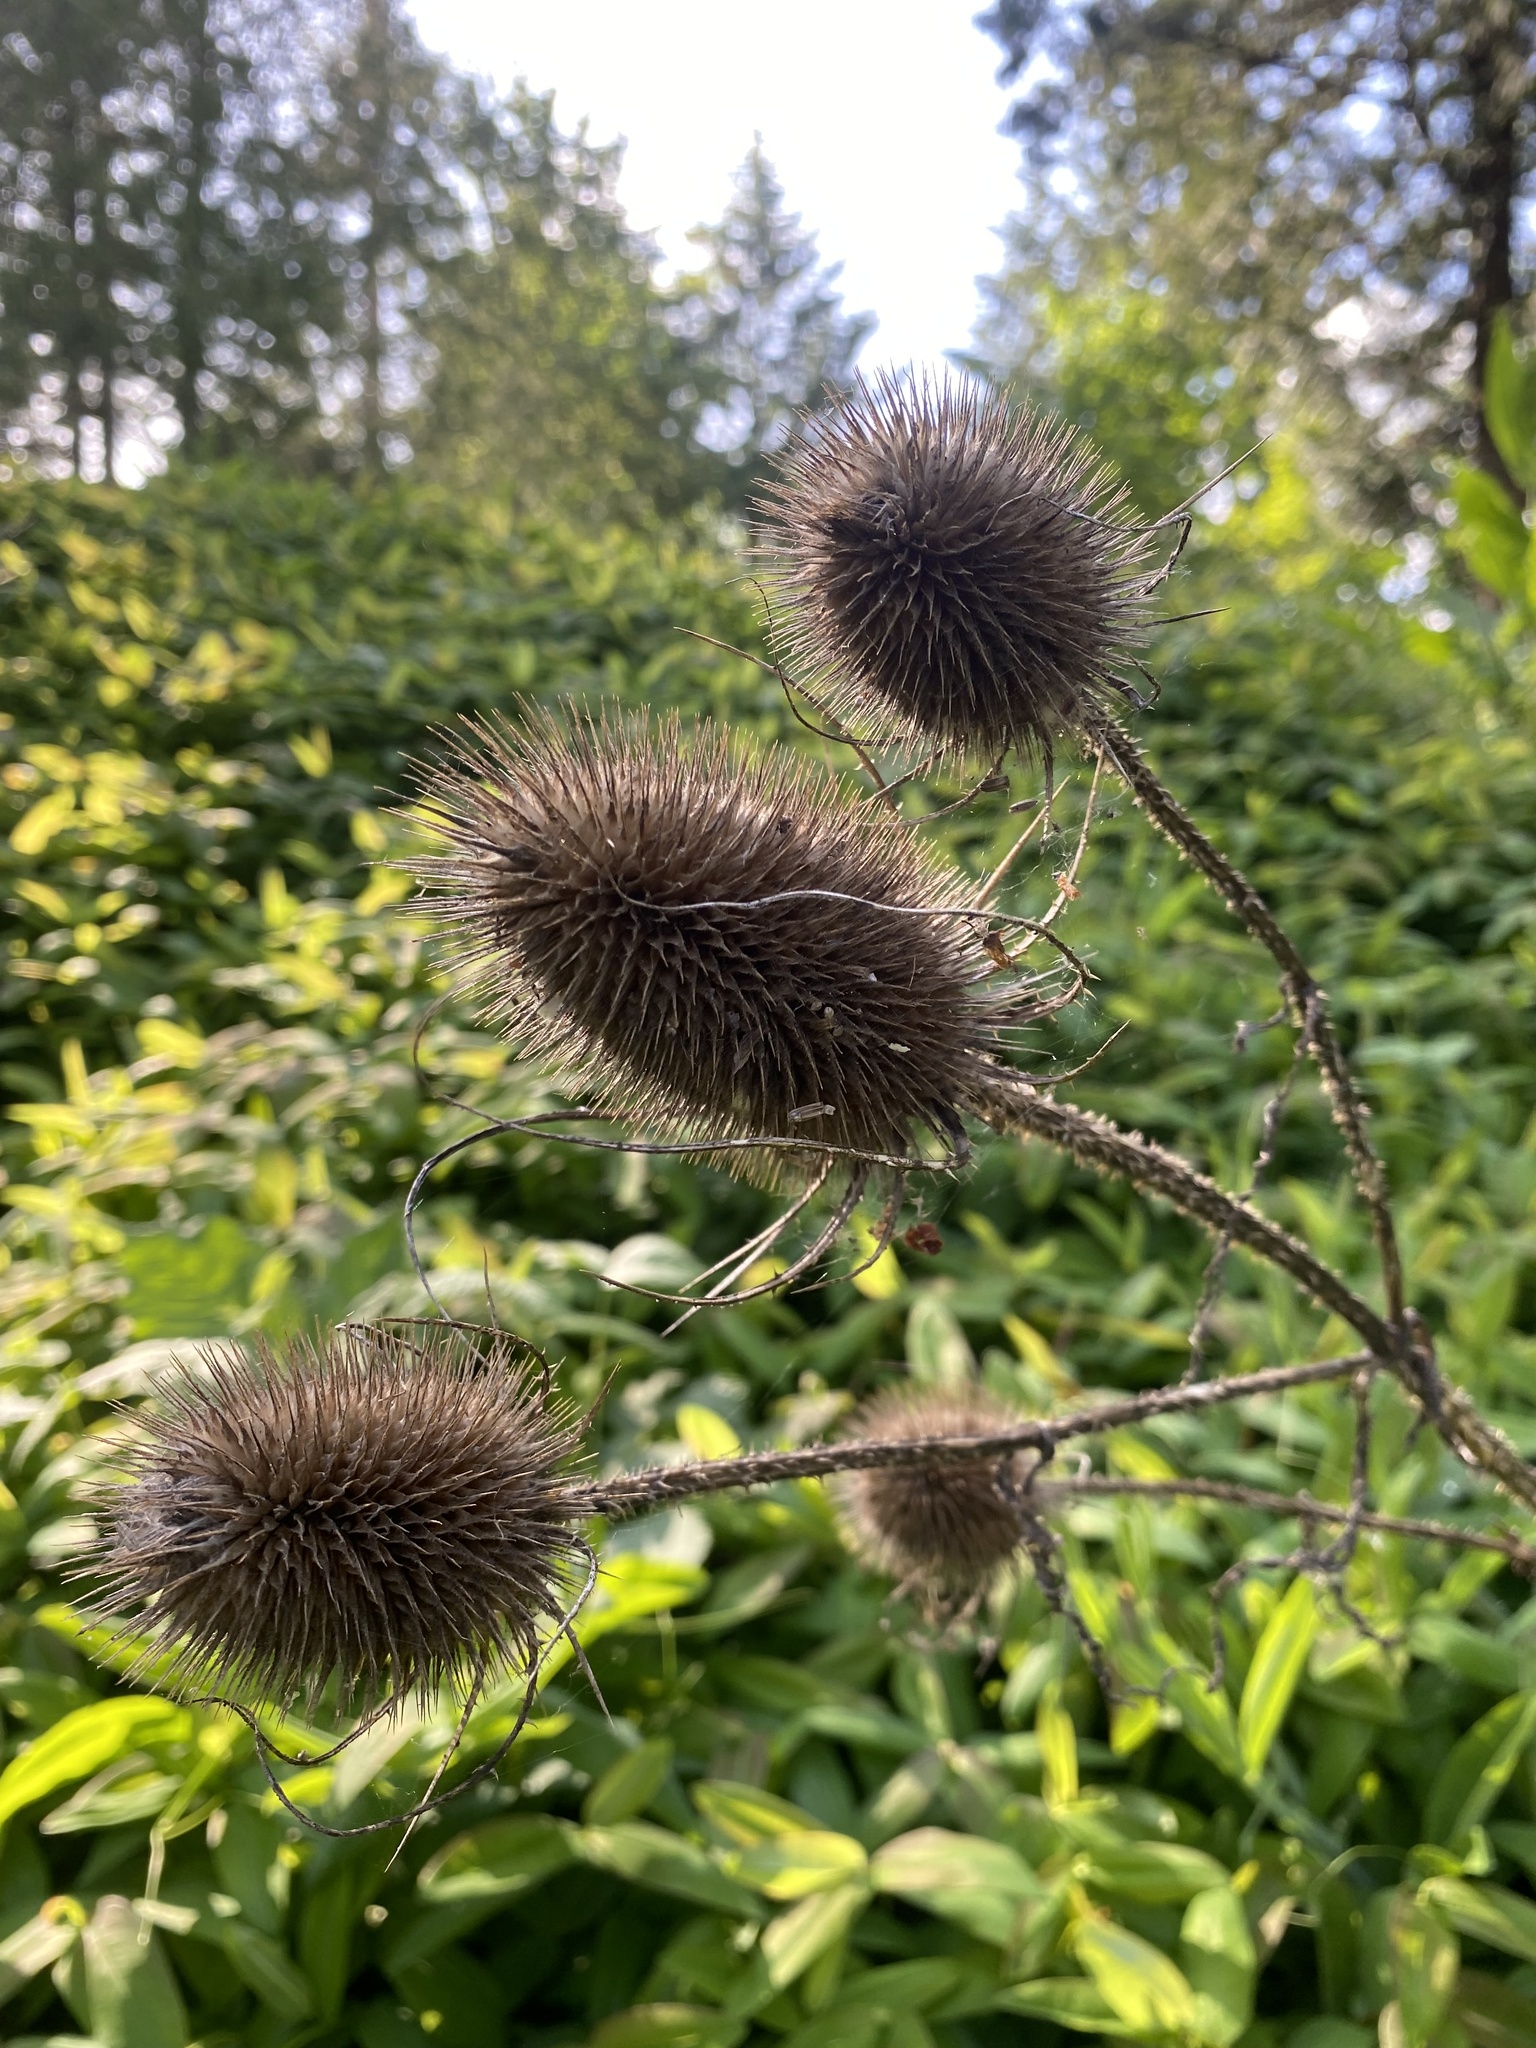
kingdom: Plantae
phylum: Tracheophyta
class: Magnoliopsida
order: Dipsacales
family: Caprifoliaceae
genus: Dipsacus
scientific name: Dipsacus fullonum
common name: Teasel
